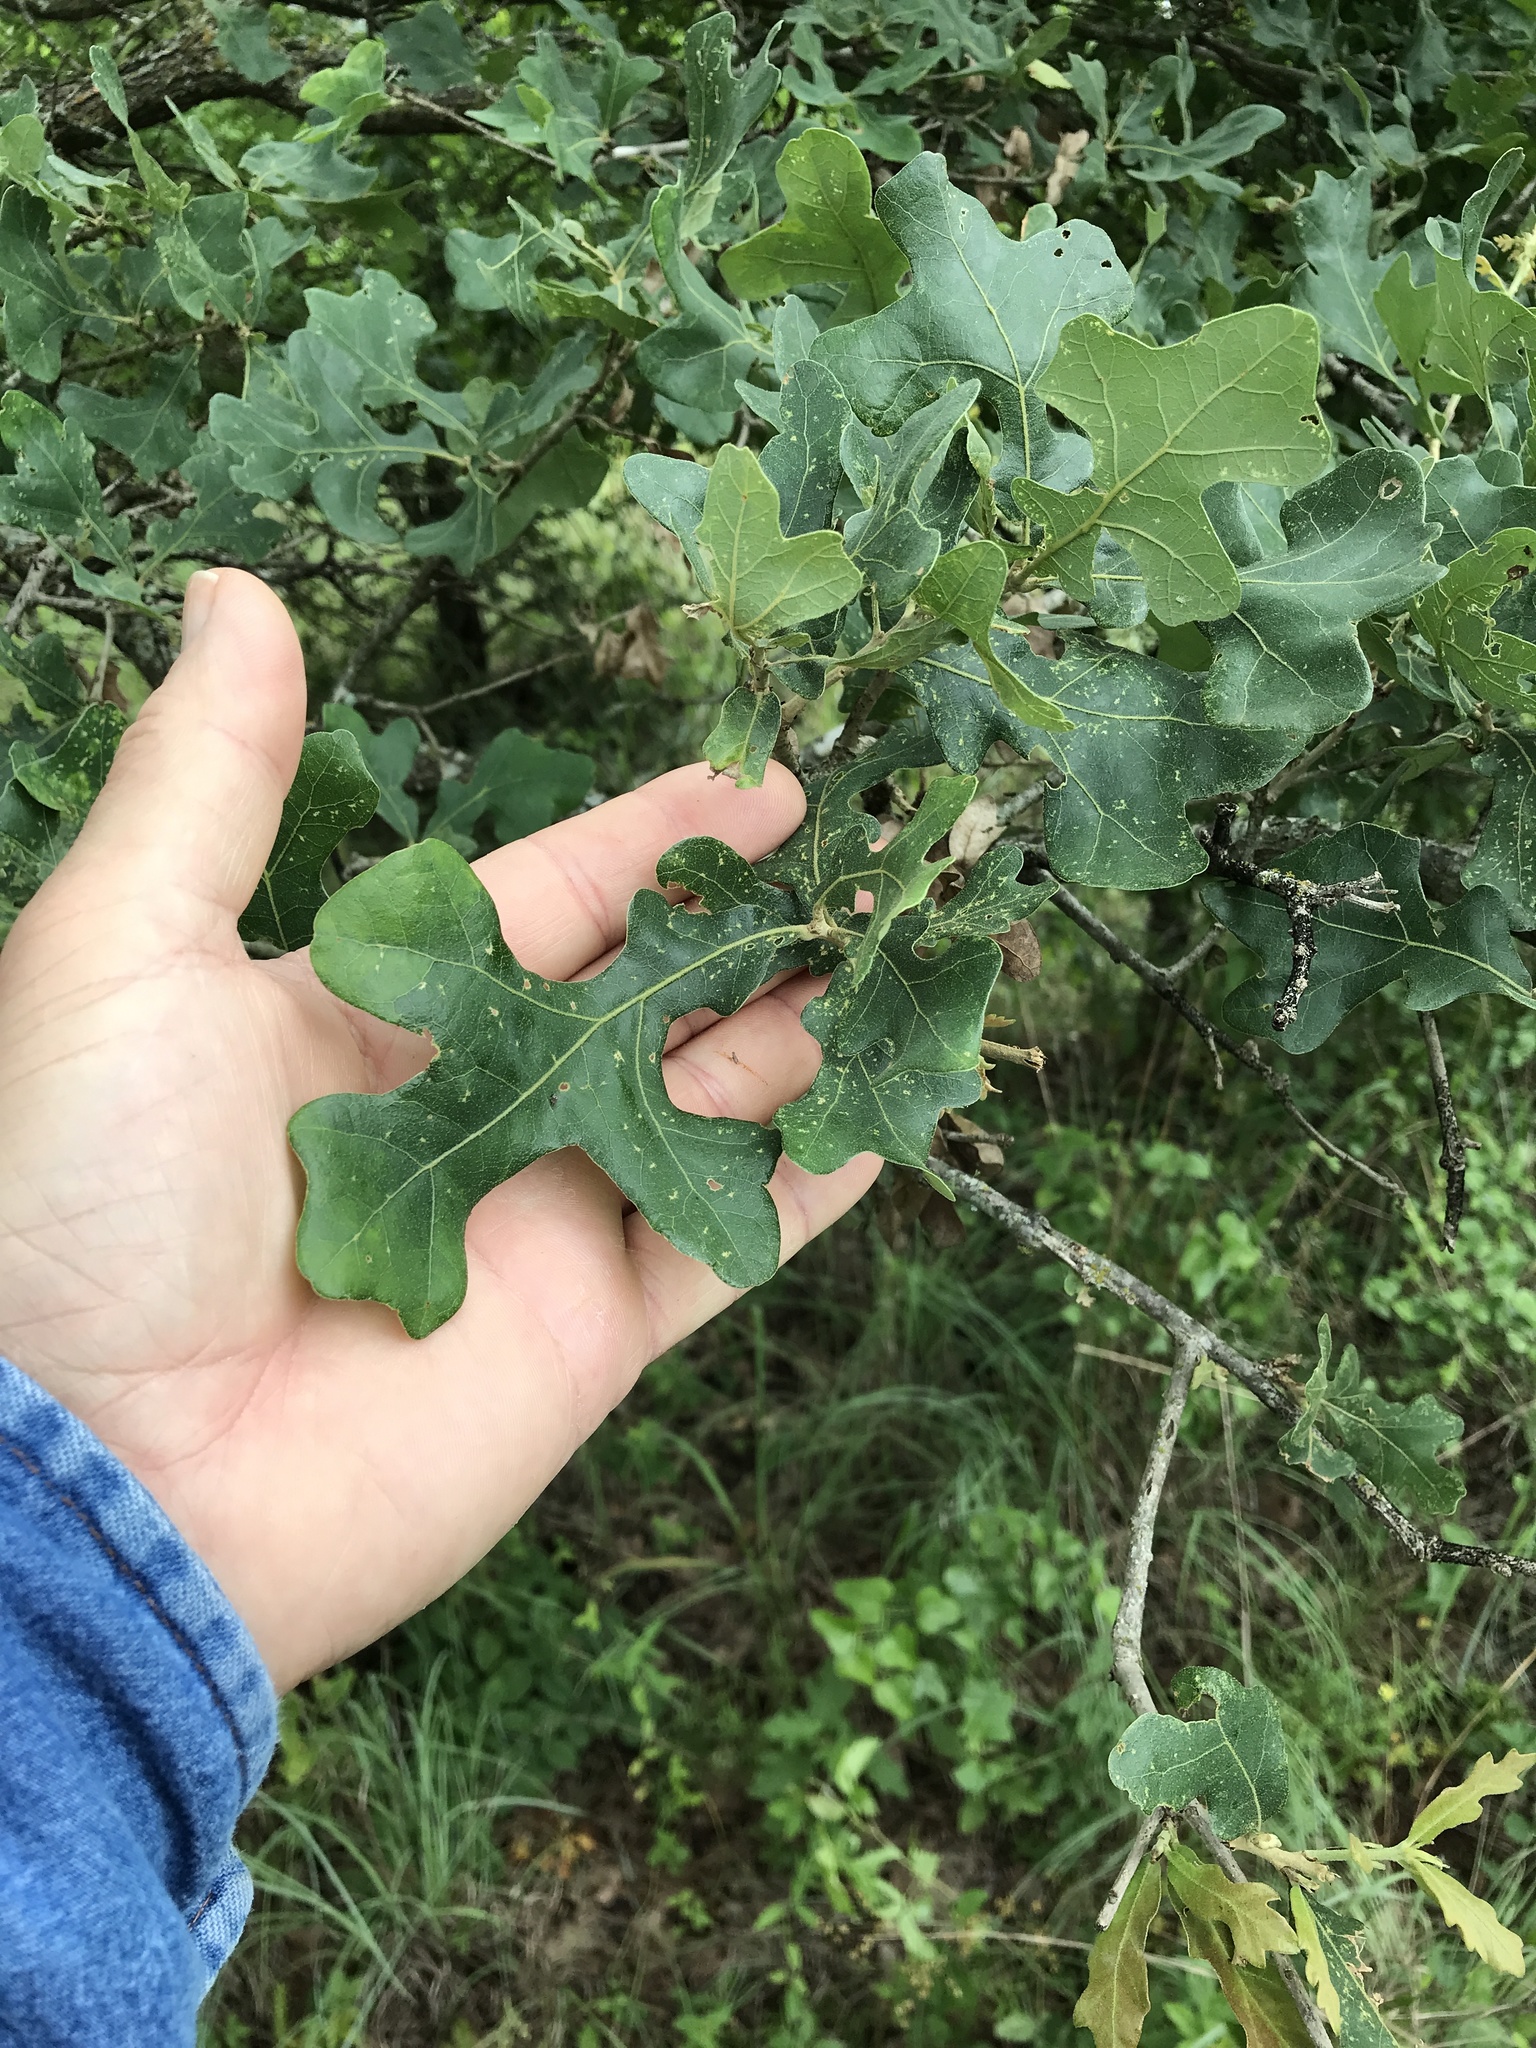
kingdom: Plantae
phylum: Tracheophyta
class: Magnoliopsida
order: Fagales
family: Fagaceae
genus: Quercus
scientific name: Quercus stellata
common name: Post oak
